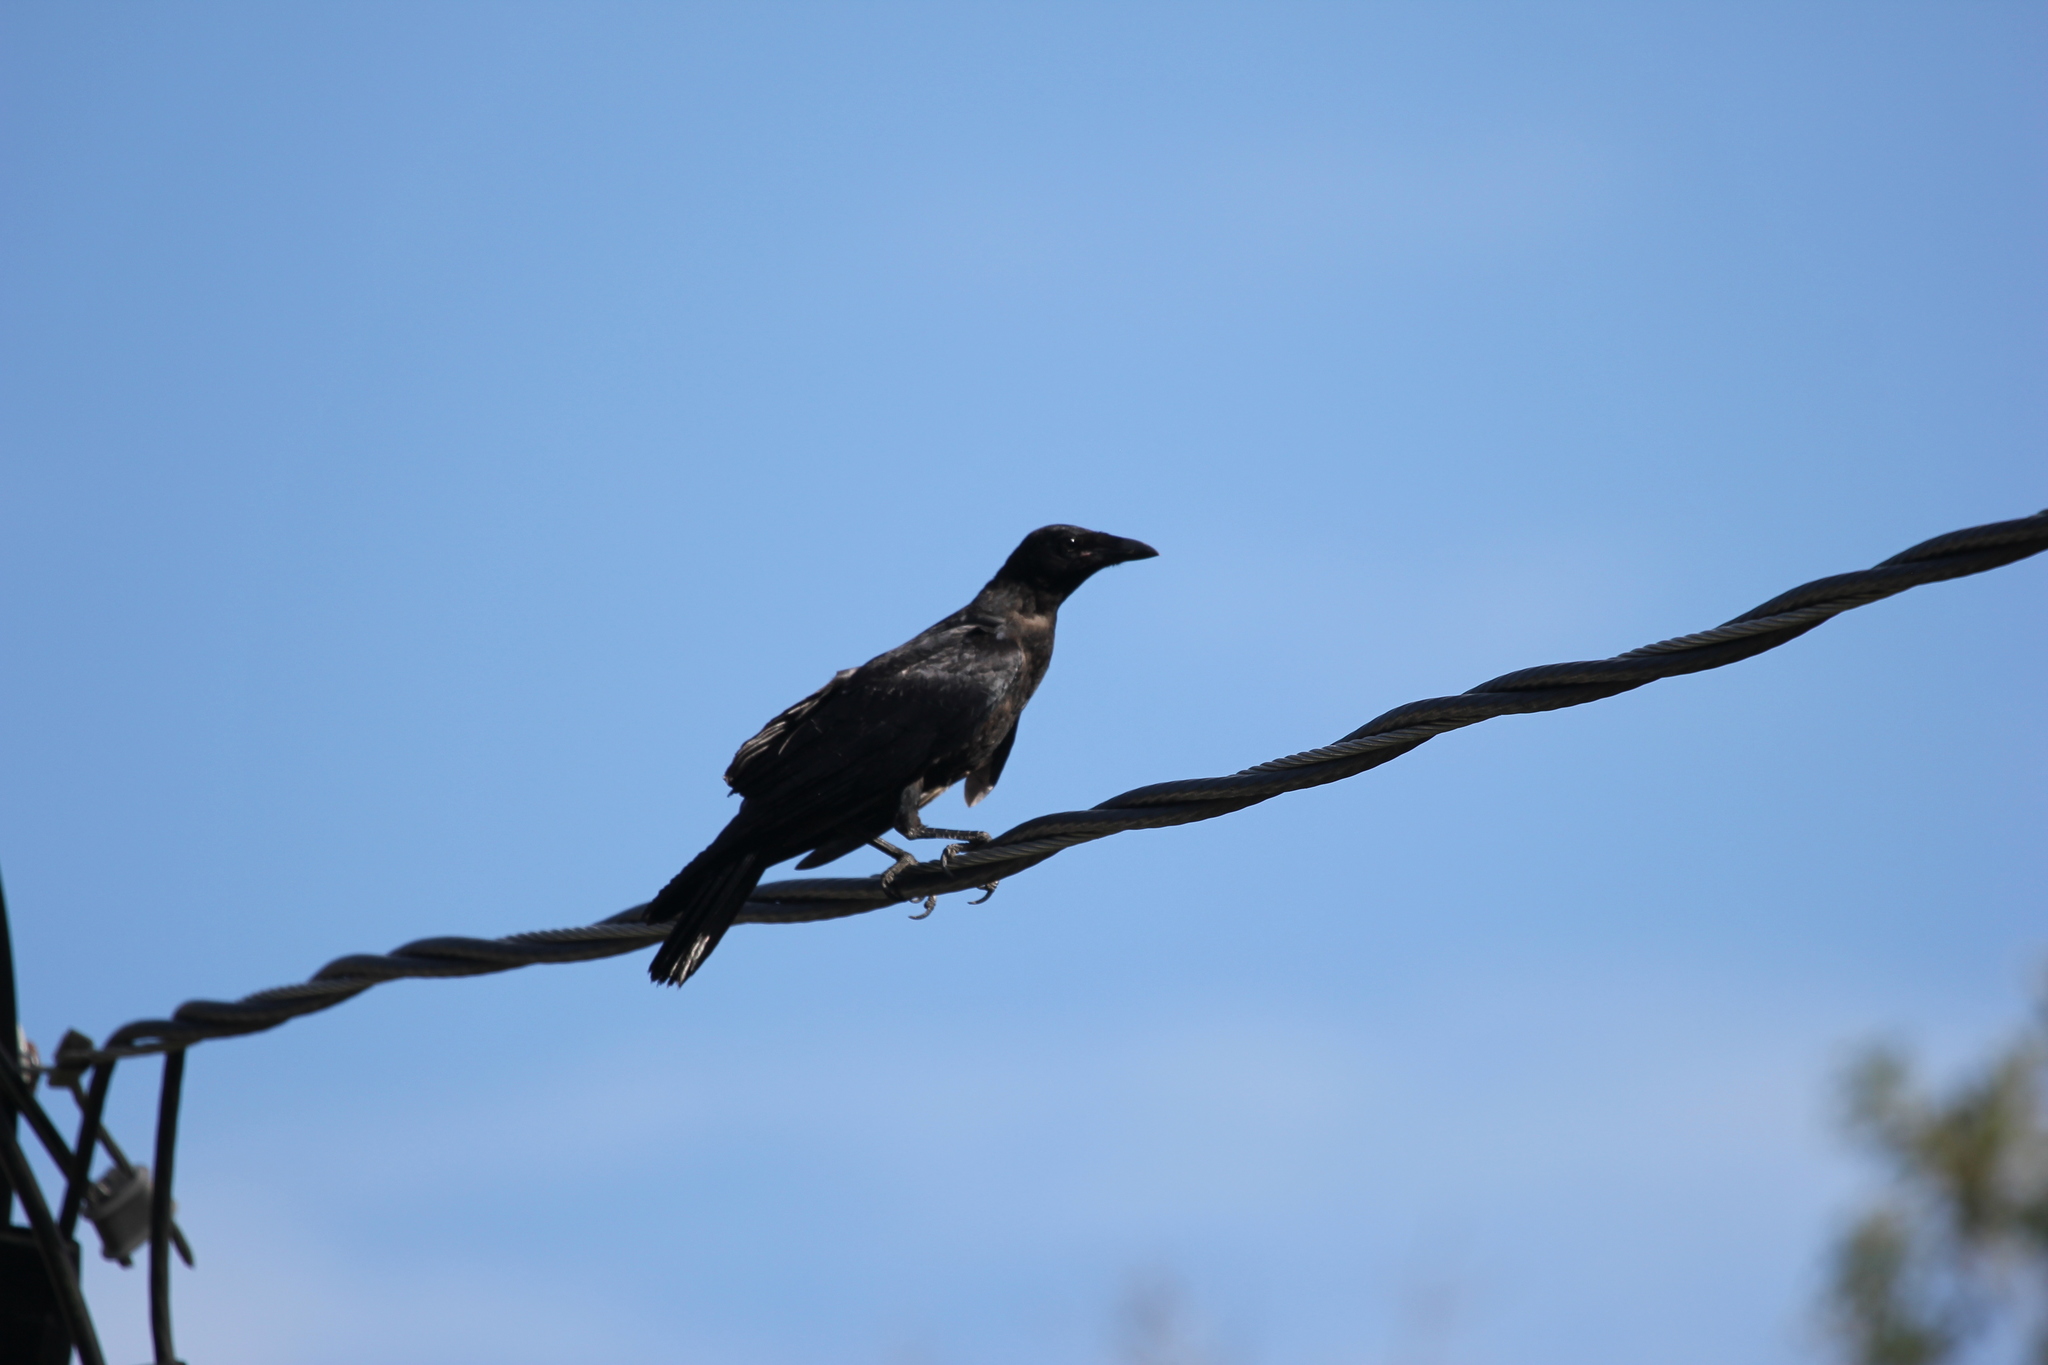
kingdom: Animalia
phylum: Chordata
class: Aves
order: Passeriformes
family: Corvidae
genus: Corvus
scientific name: Corvus ossifragus
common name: Fish crow
